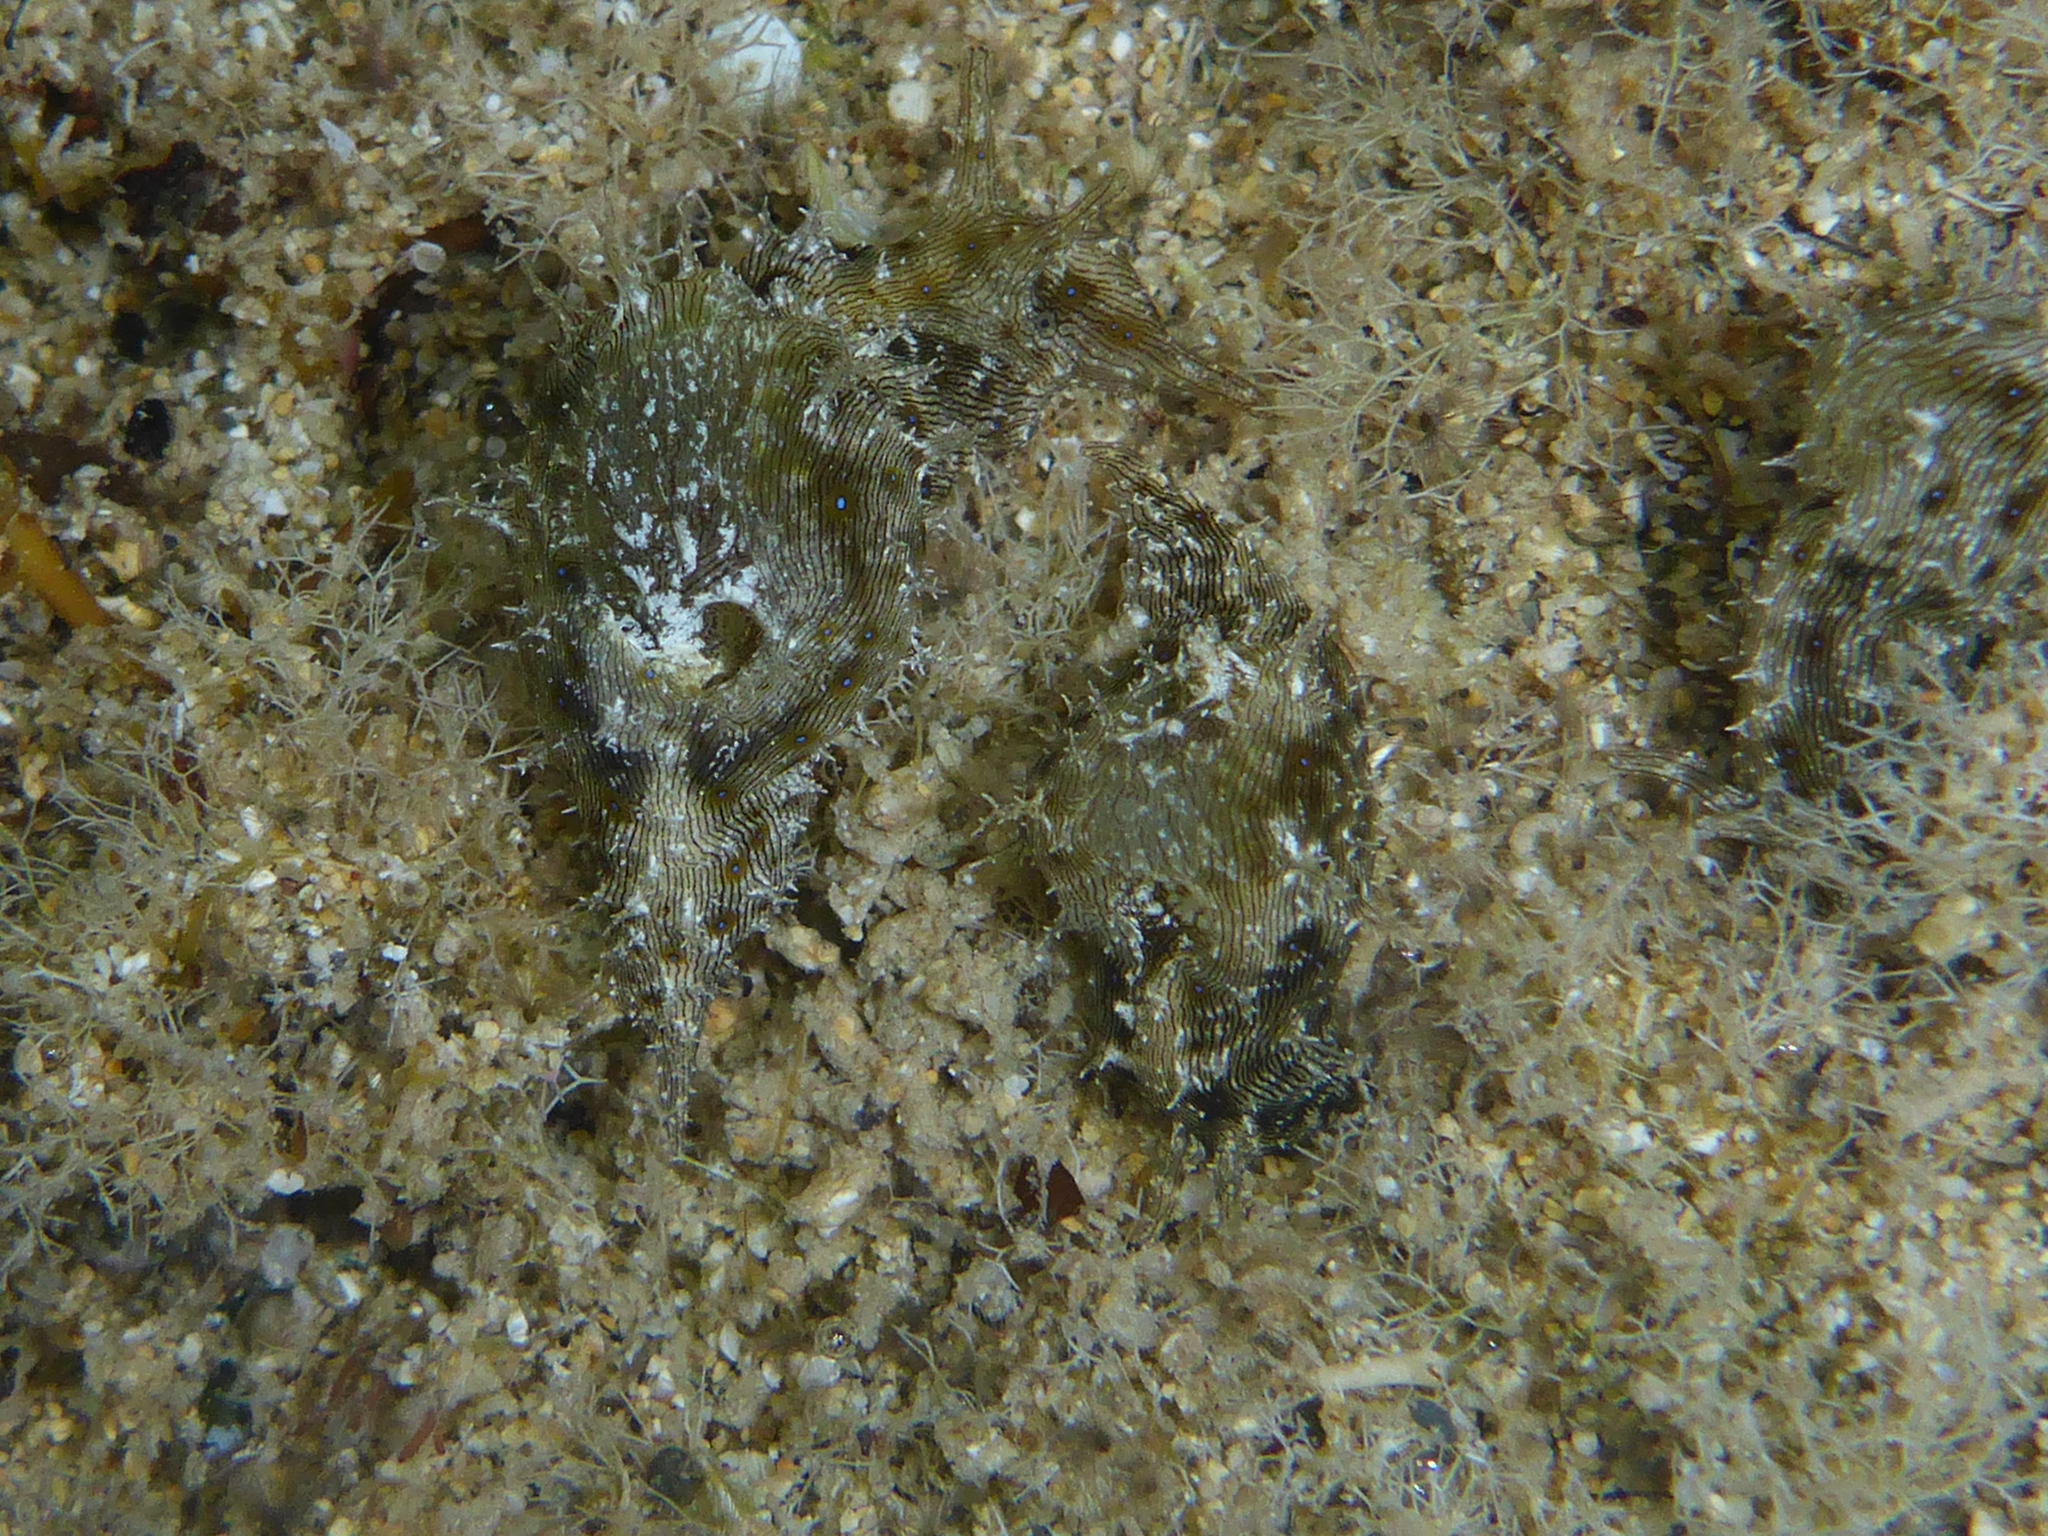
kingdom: Animalia
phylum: Mollusca
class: Gastropoda
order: Aplysiida
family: Aplysiidae
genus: Stylocheilus
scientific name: Stylocheilus striatus
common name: Striated seahare
